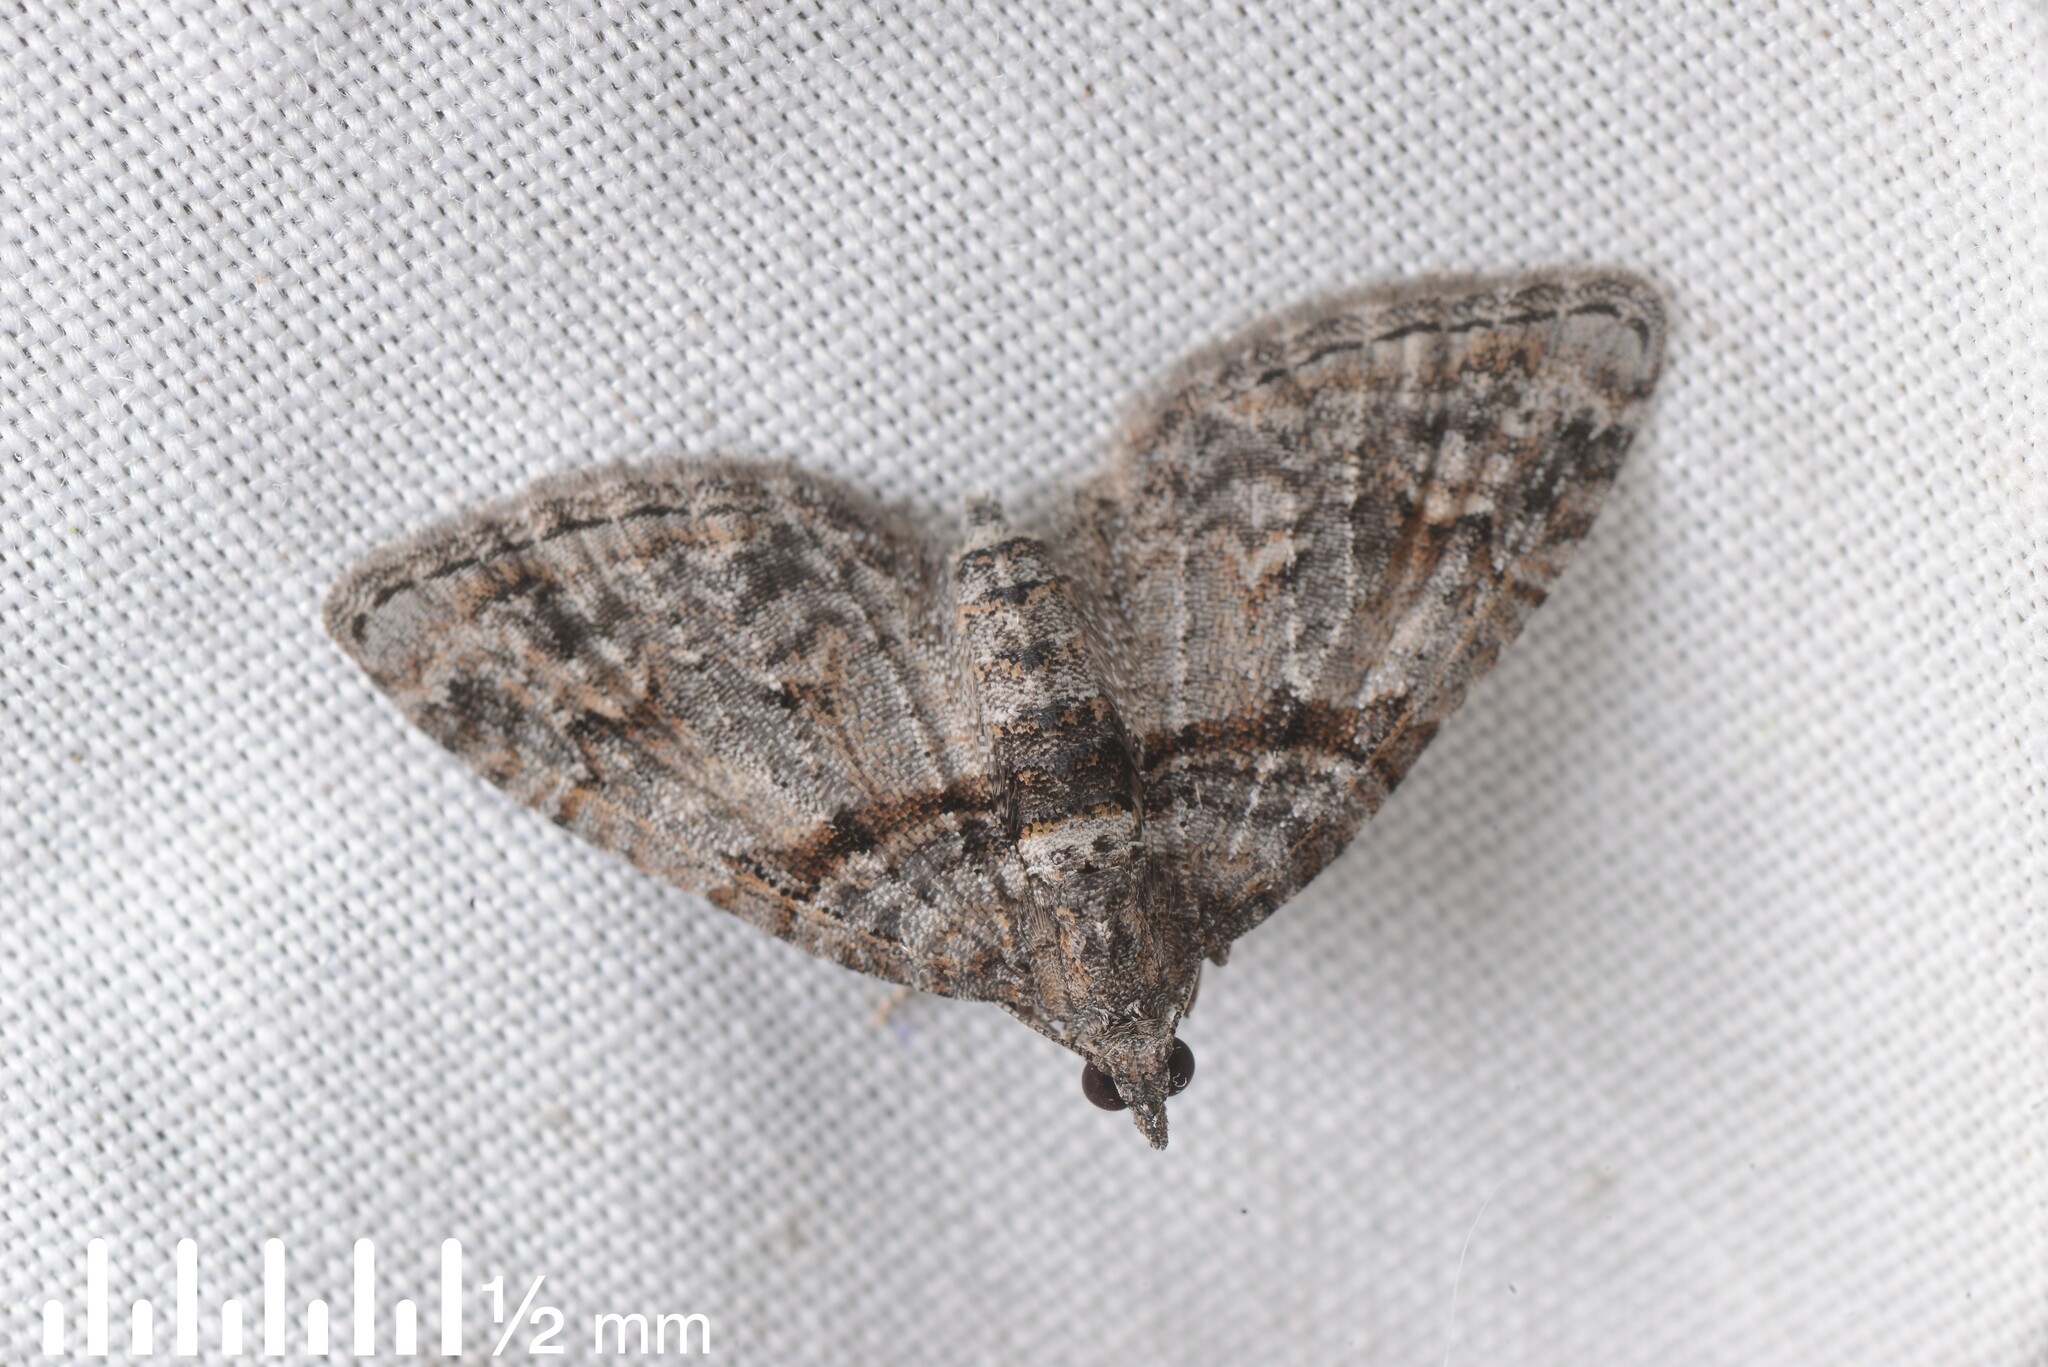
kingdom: Animalia
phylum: Arthropoda
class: Insecta
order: Lepidoptera
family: Geometridae
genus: Phrissogonus
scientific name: Phrissogonus laticostata
